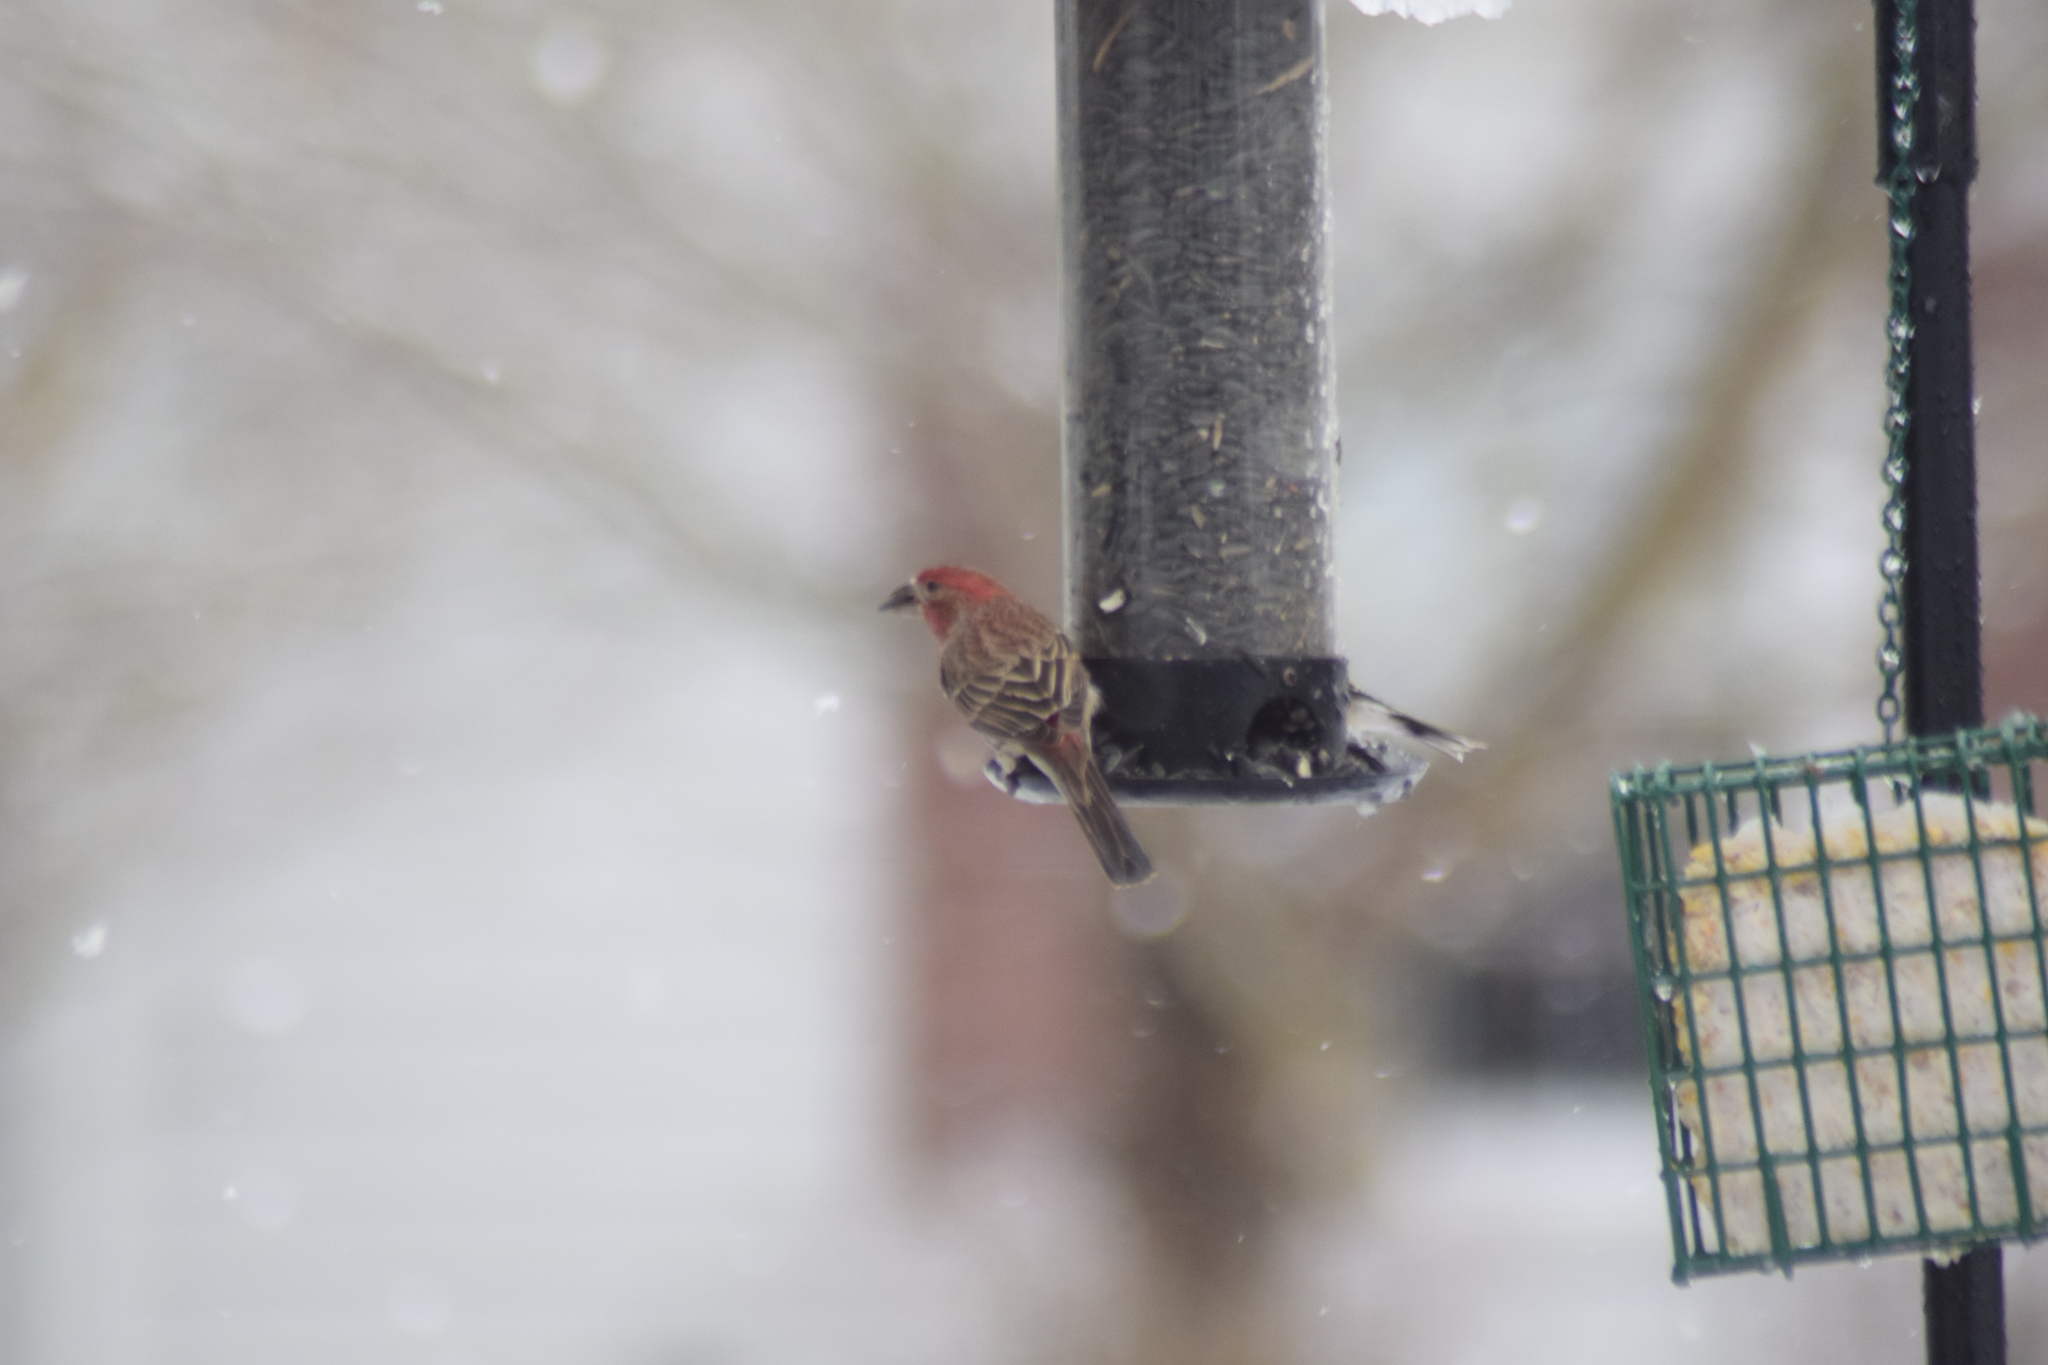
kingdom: Animalia
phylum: Chordata
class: Aves
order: Passeriformes
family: Fringillidae
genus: Haemorhous
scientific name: Haemorhous mexicanus
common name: House finch
